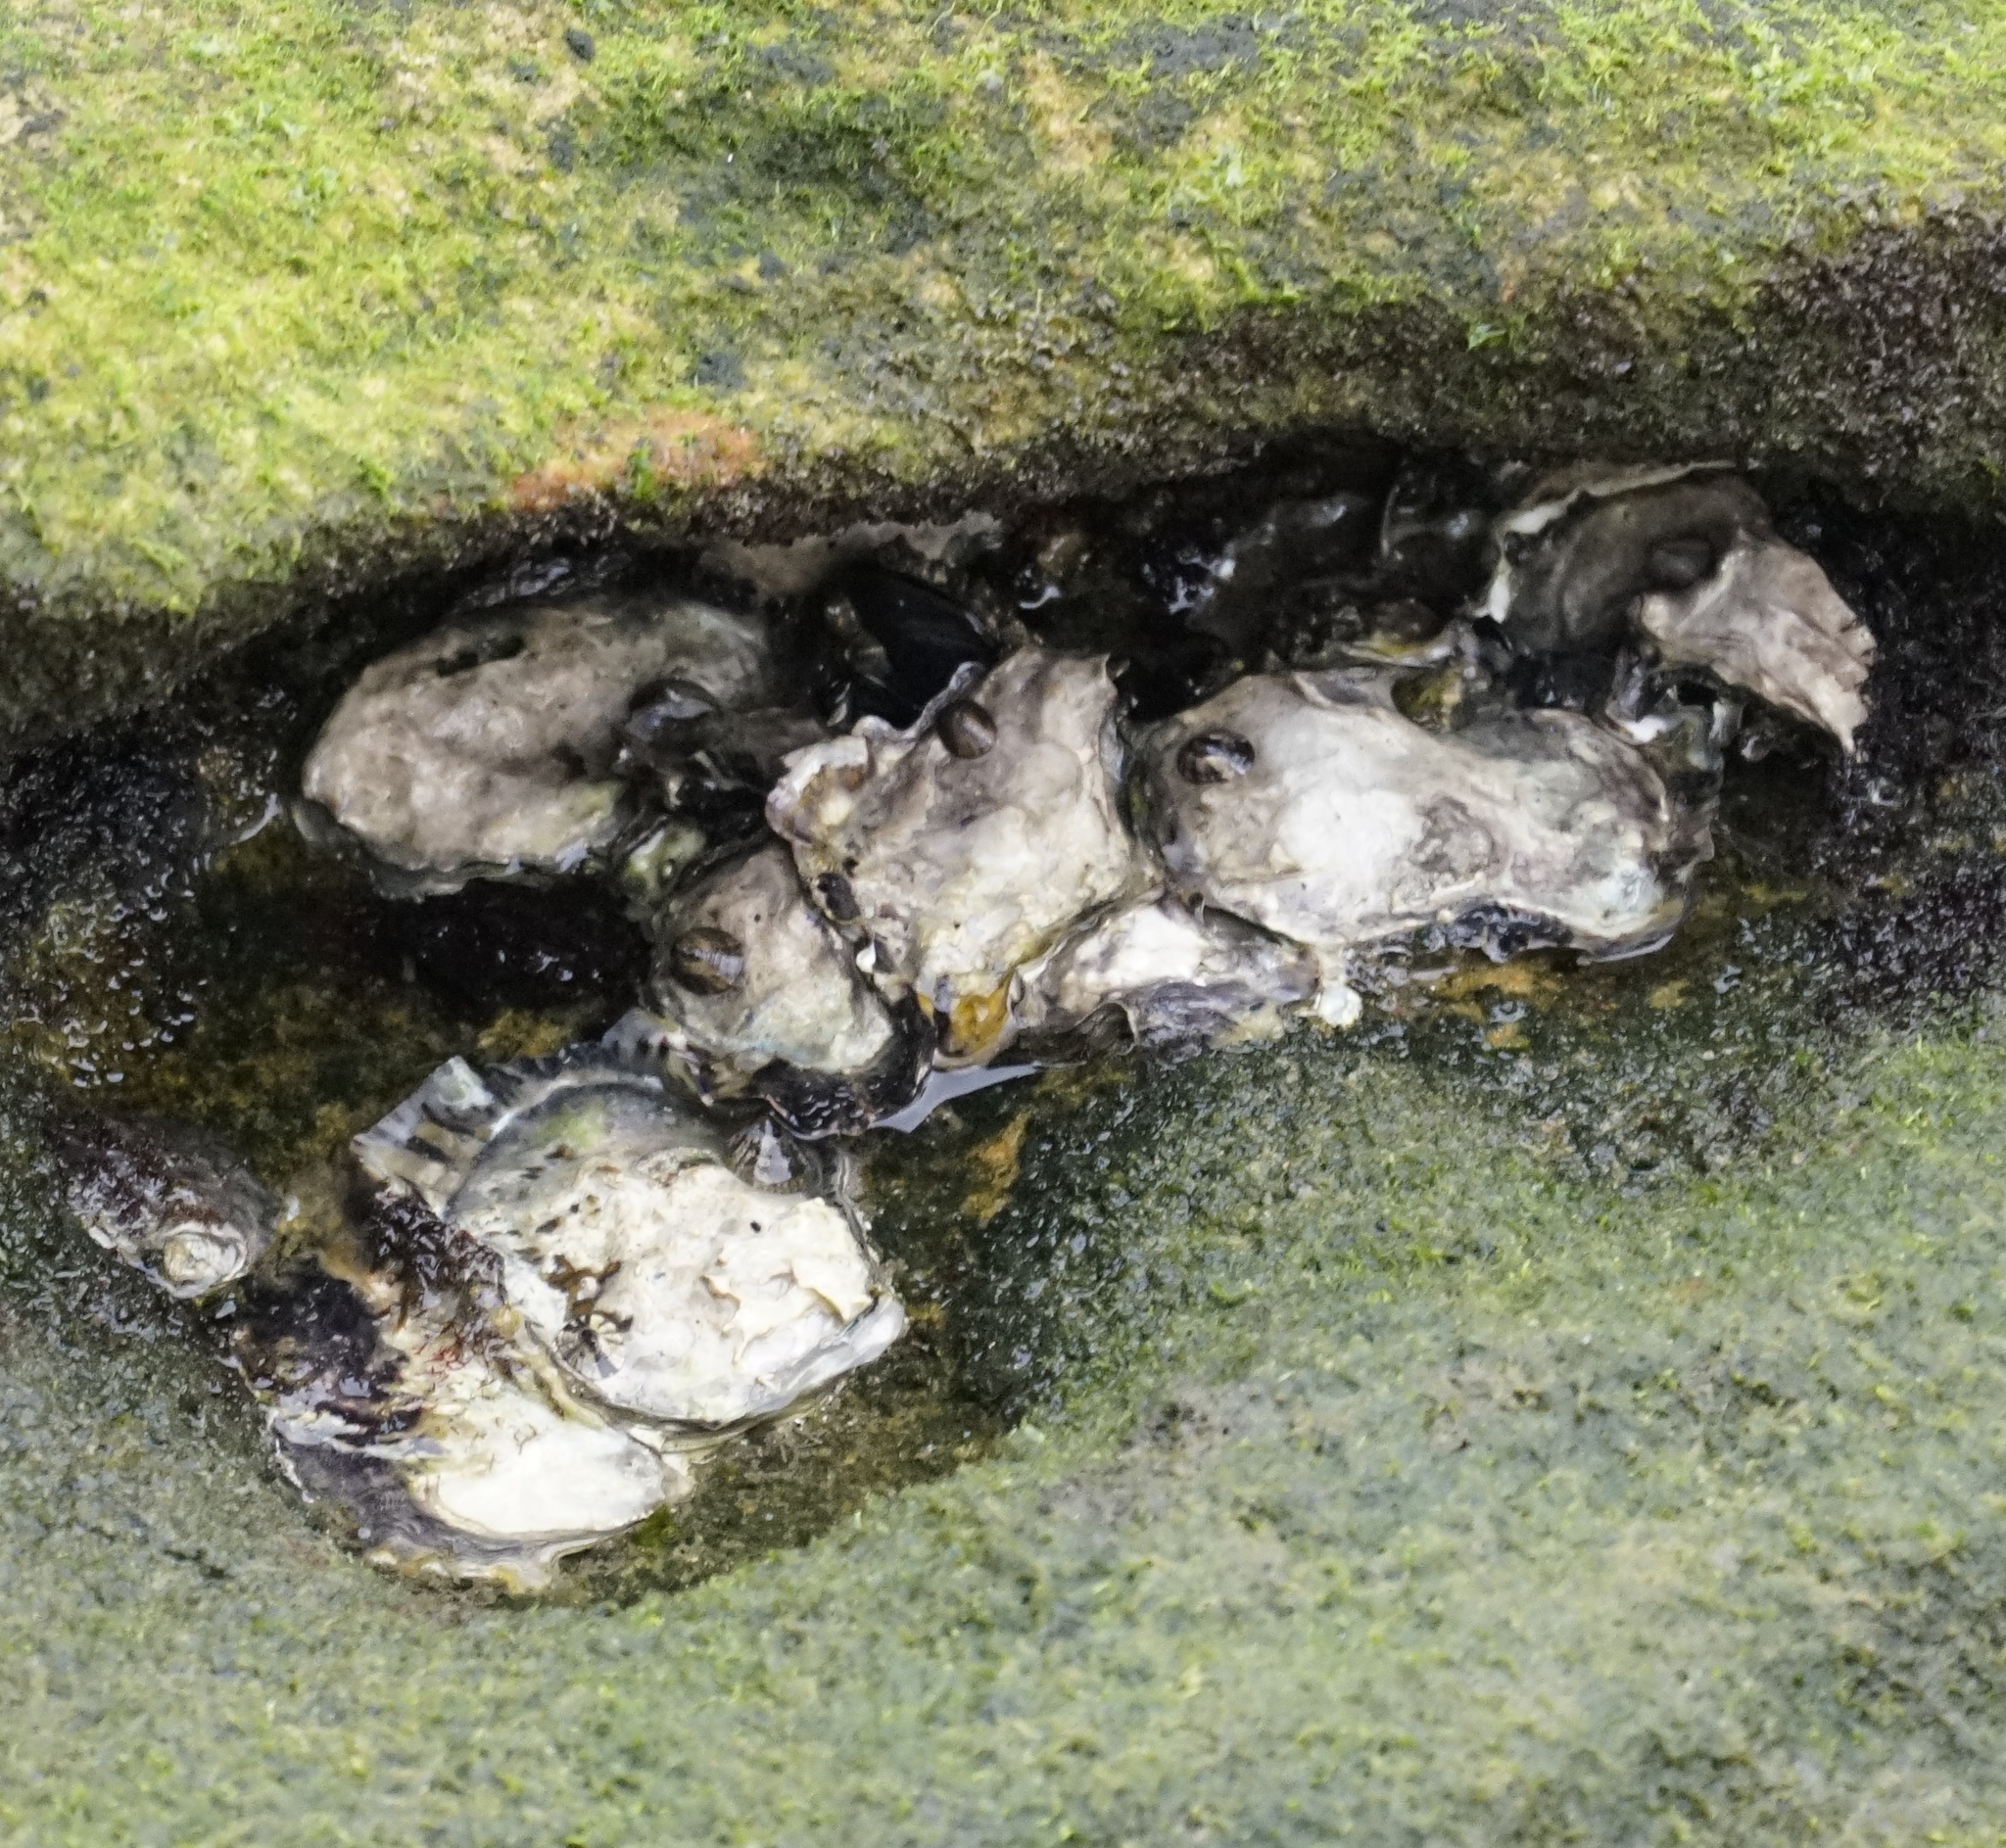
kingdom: Animalia
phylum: Mollusca
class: Bivalvia
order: Ostreida
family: Ostreidae
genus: Saccostrea
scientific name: Saccostrea glomerata
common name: Sydney cupped oyster
